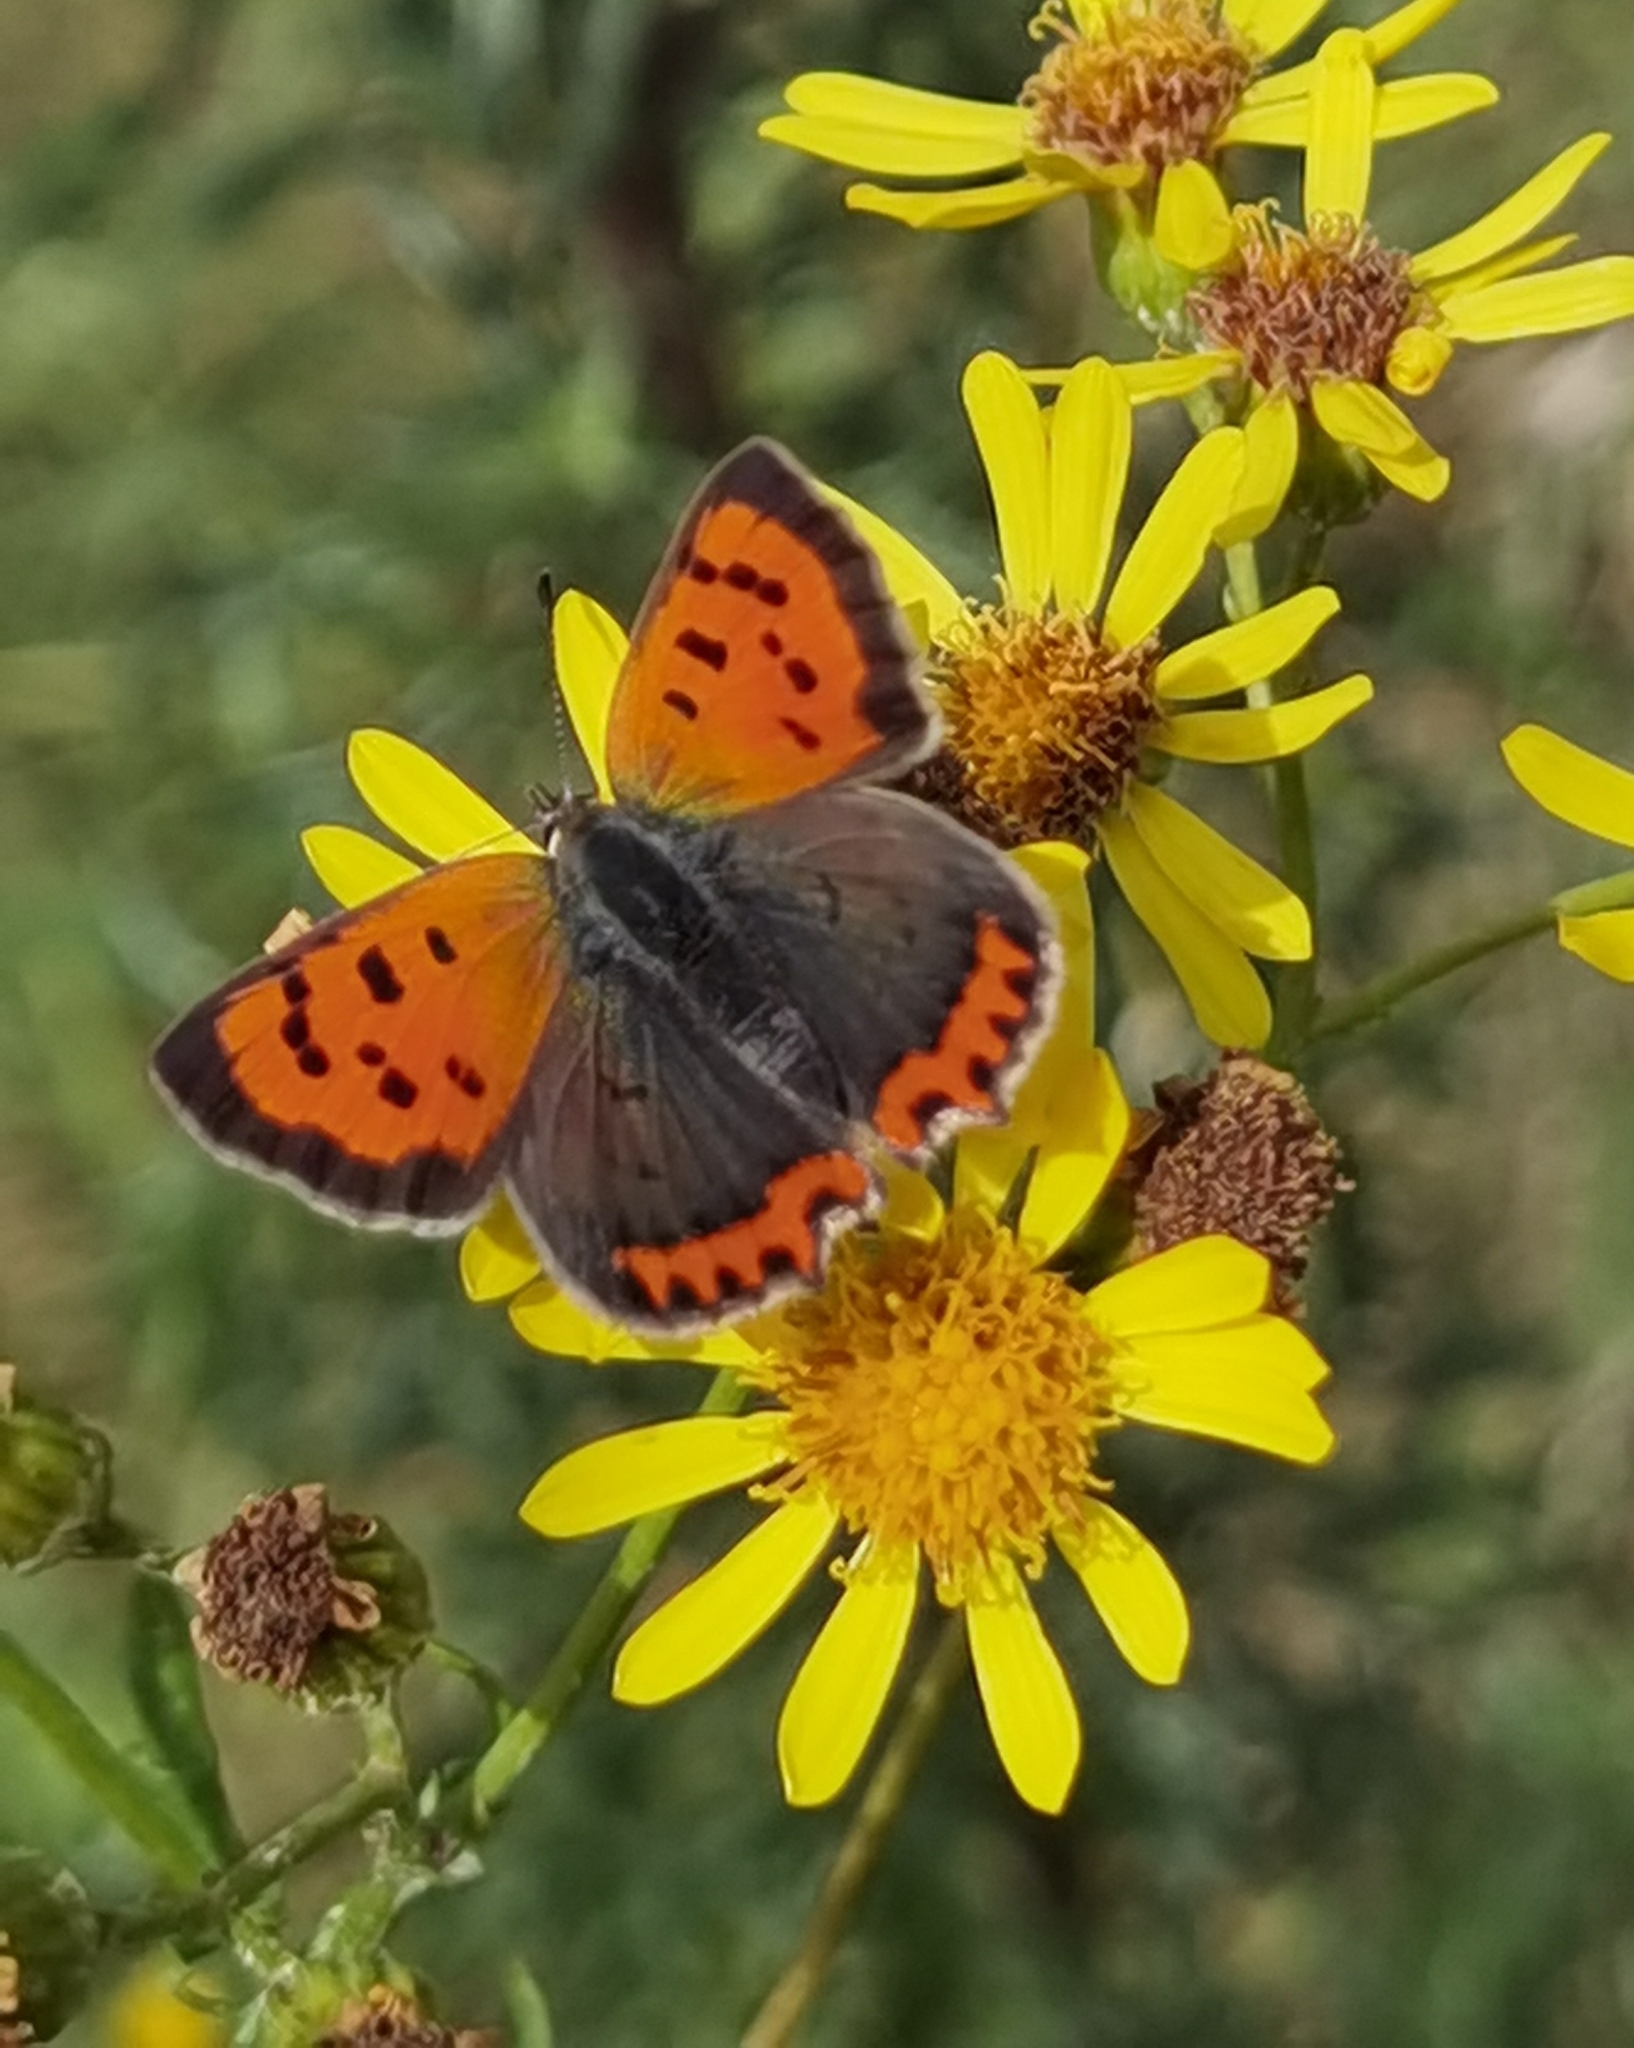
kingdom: Animalia
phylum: Arthropoda
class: Insecta
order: Lepidoptera
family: Lycaenidae
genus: Lycaena
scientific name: Lycaena phlaeas
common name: Small copper
